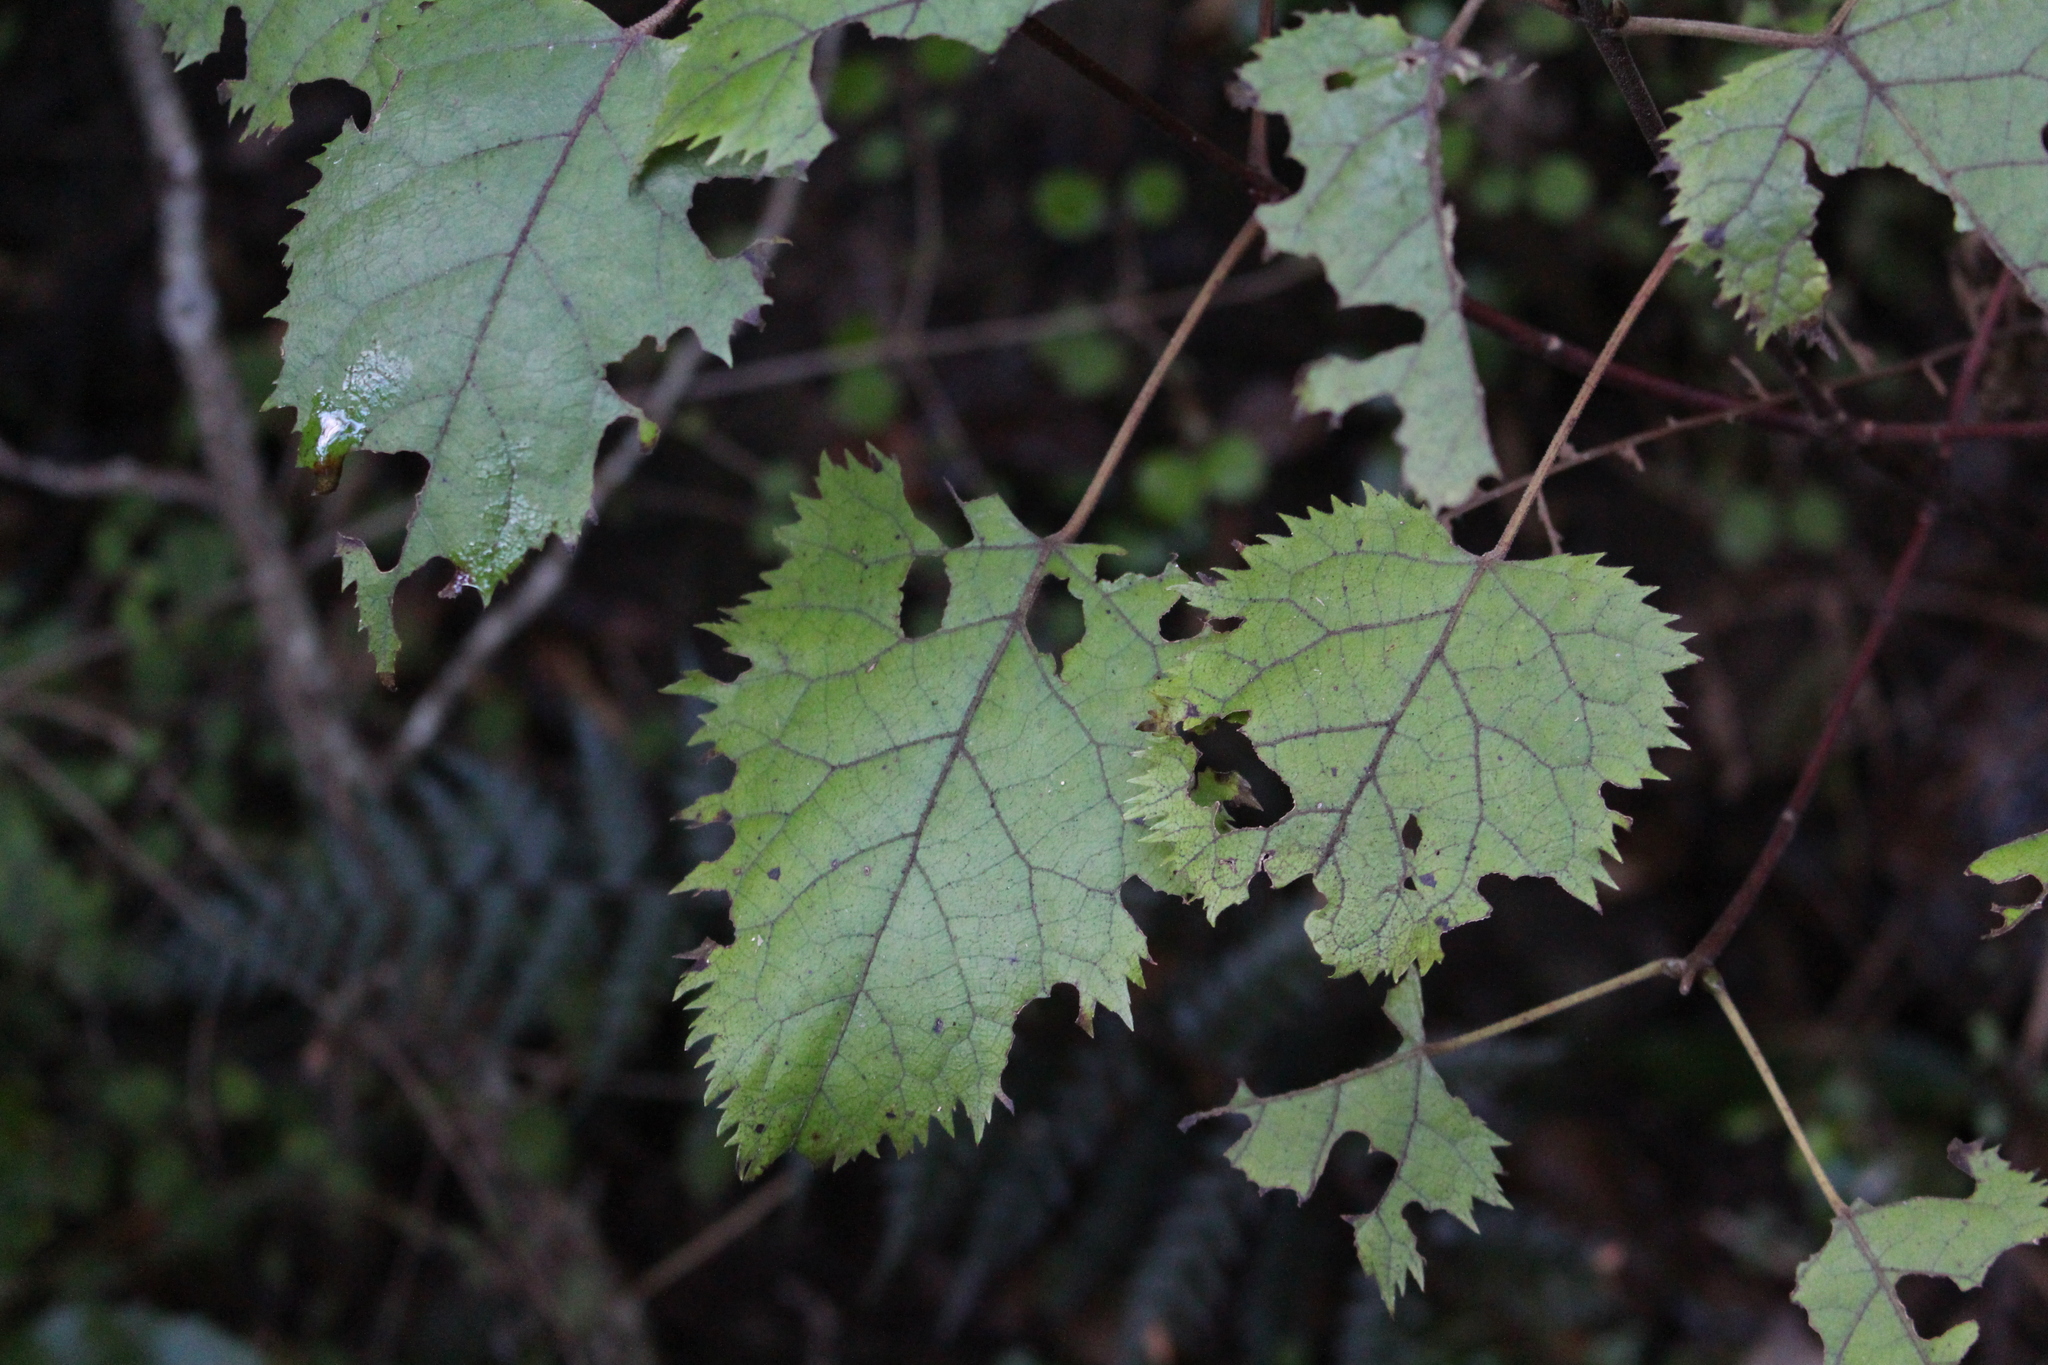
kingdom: Plantae
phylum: Tracheophyta
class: Magnoliopsida
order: Oxalidales
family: Elaeocarpaceae
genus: Aristotelia
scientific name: Aristotelia serrata
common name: New zealand wineberry
